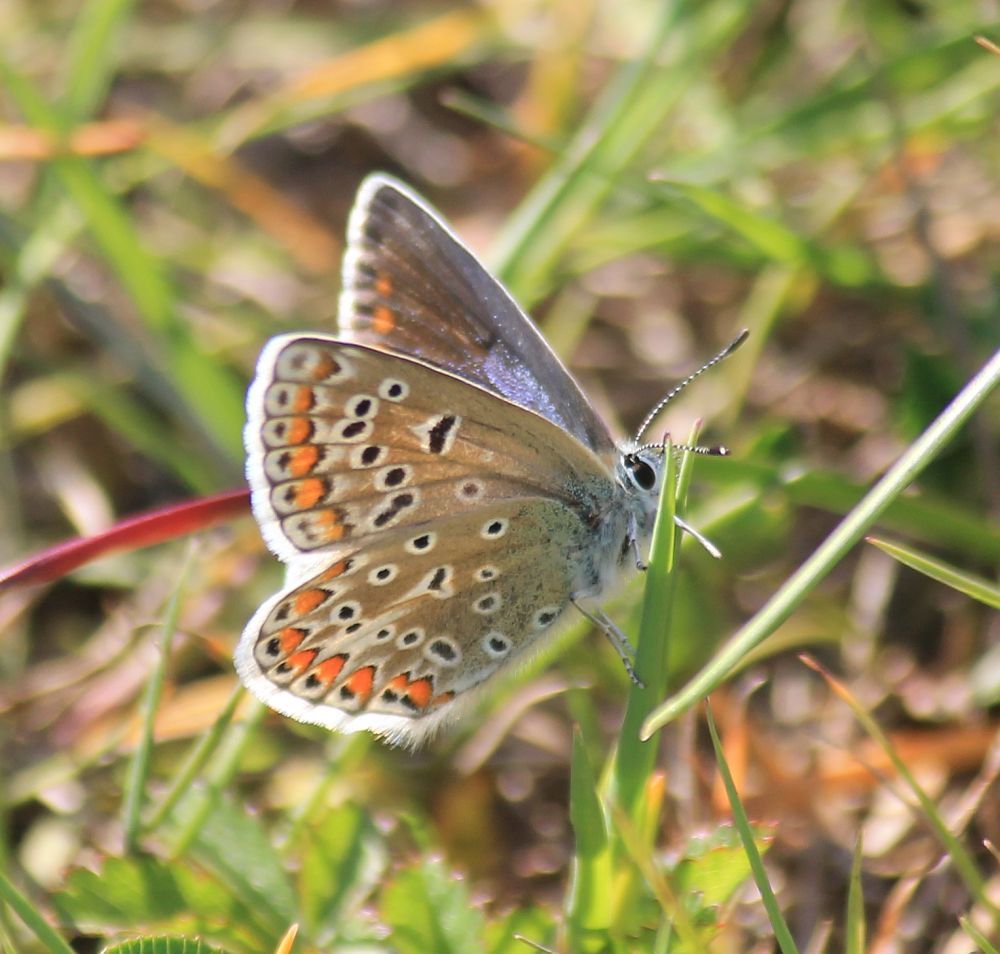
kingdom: Animalia
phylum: Arthropoda
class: Insecta
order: Lepidoptera
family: Lycaenidae
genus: Polyommatus
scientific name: Polyommatus icarus
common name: Common blue
